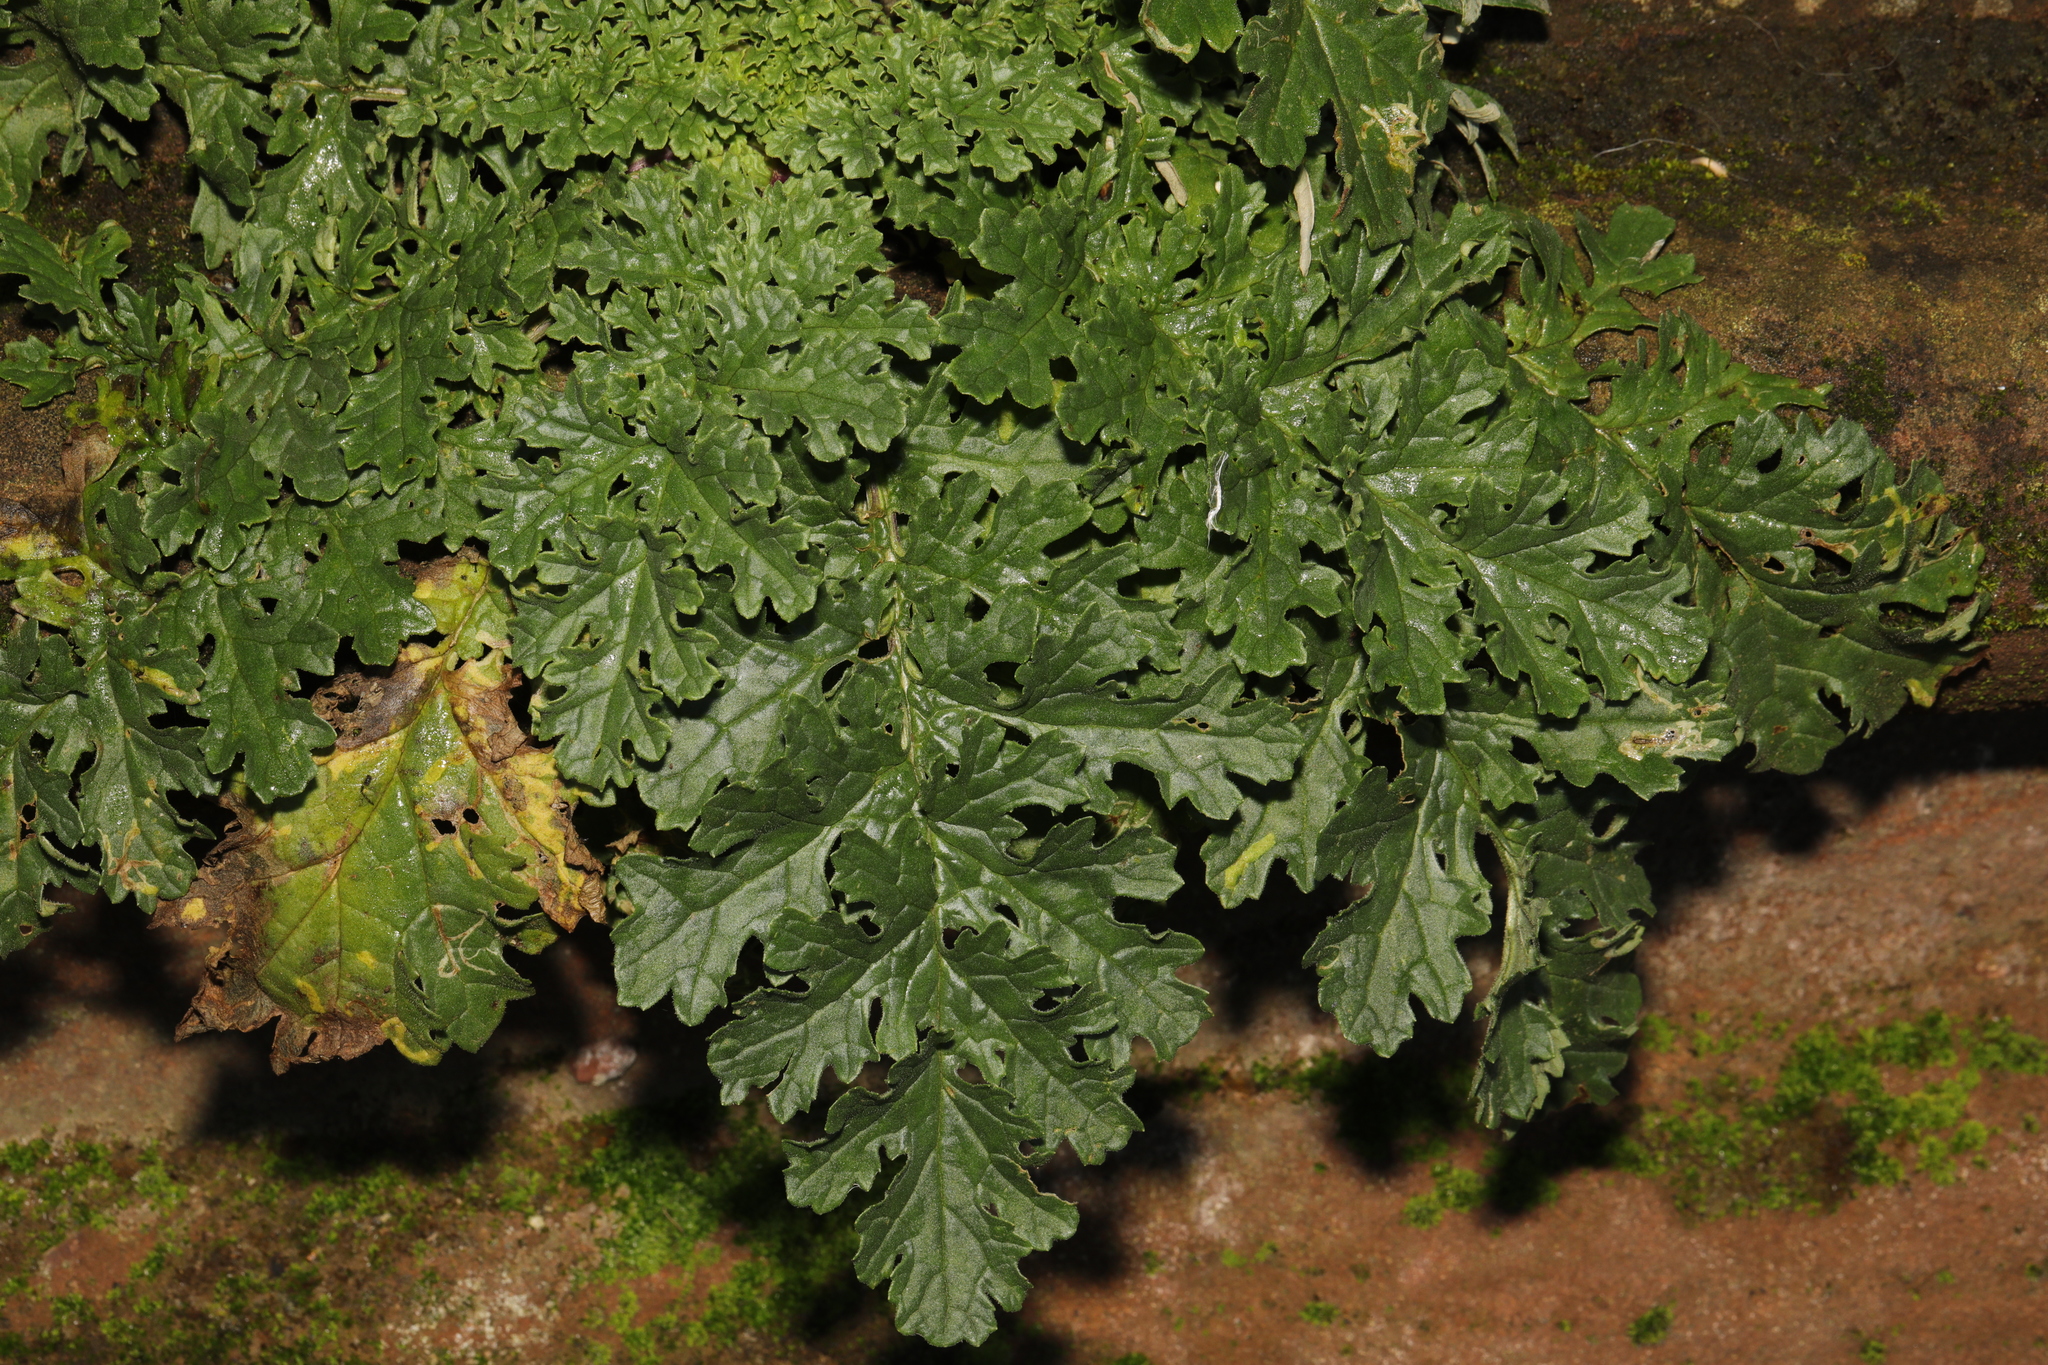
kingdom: Plantae
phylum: Tracheophyta
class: Magnoliopsida
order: Asterales
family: Asteraceae
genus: Jacobaea
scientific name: Jacobaea vulgaris
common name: Stinking willie
